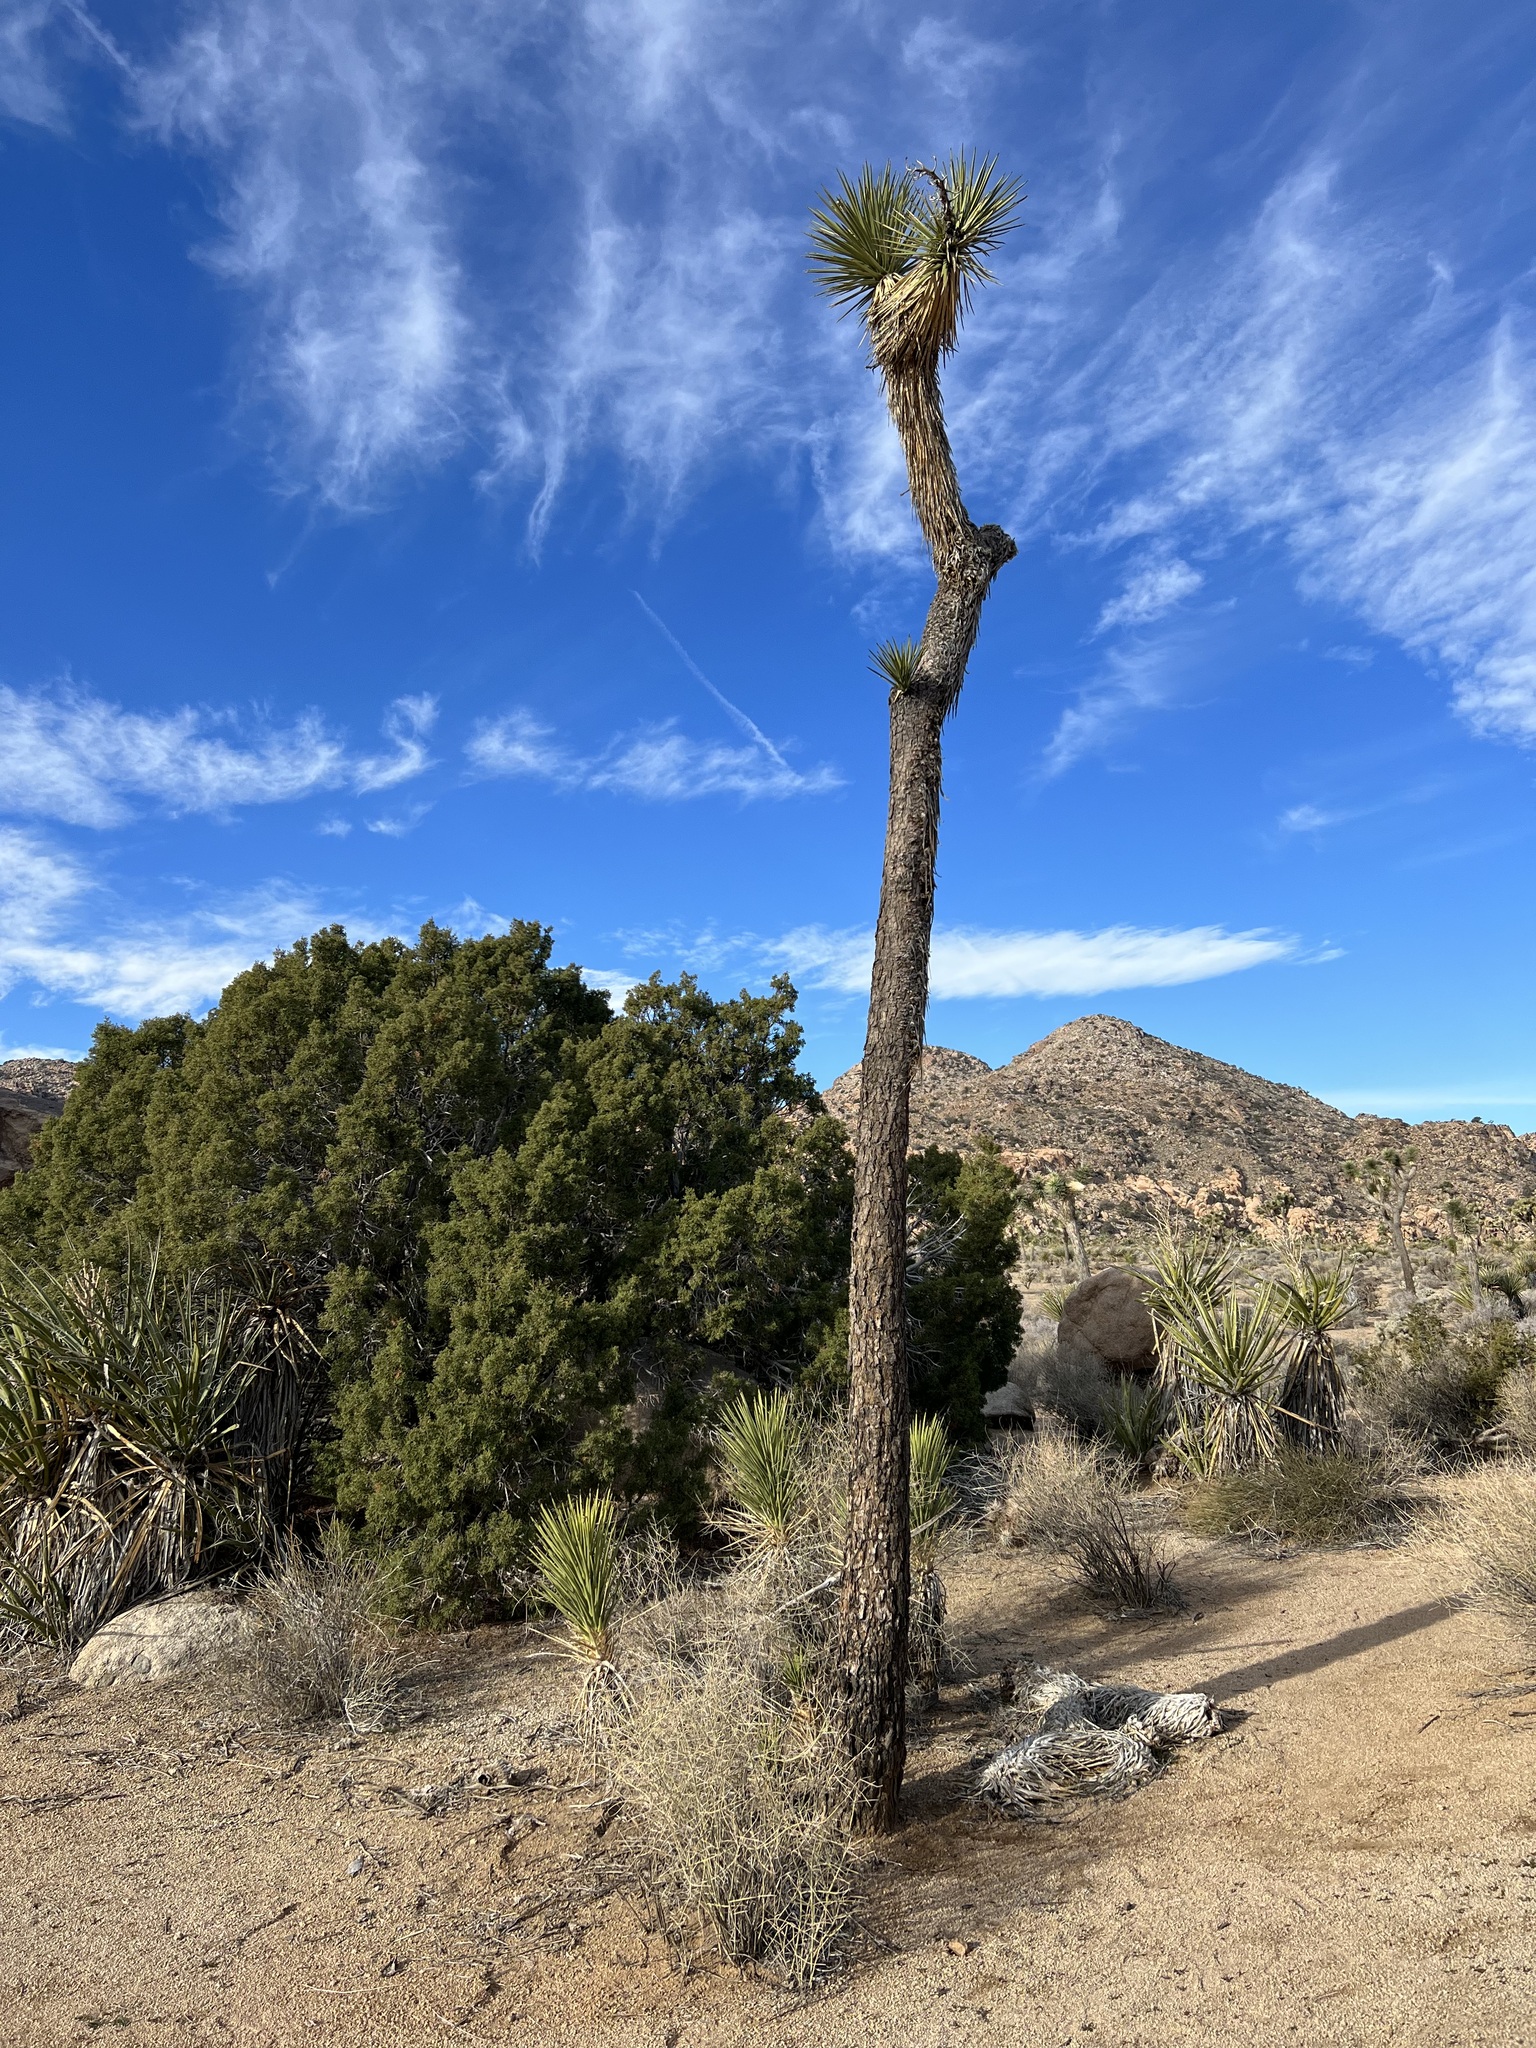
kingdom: Plantae
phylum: Tracheophyta
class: Liliopsida
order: Asparagales
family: Asparagaceae
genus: Yucca
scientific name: Yucca brevifolia
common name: Joshua tree
